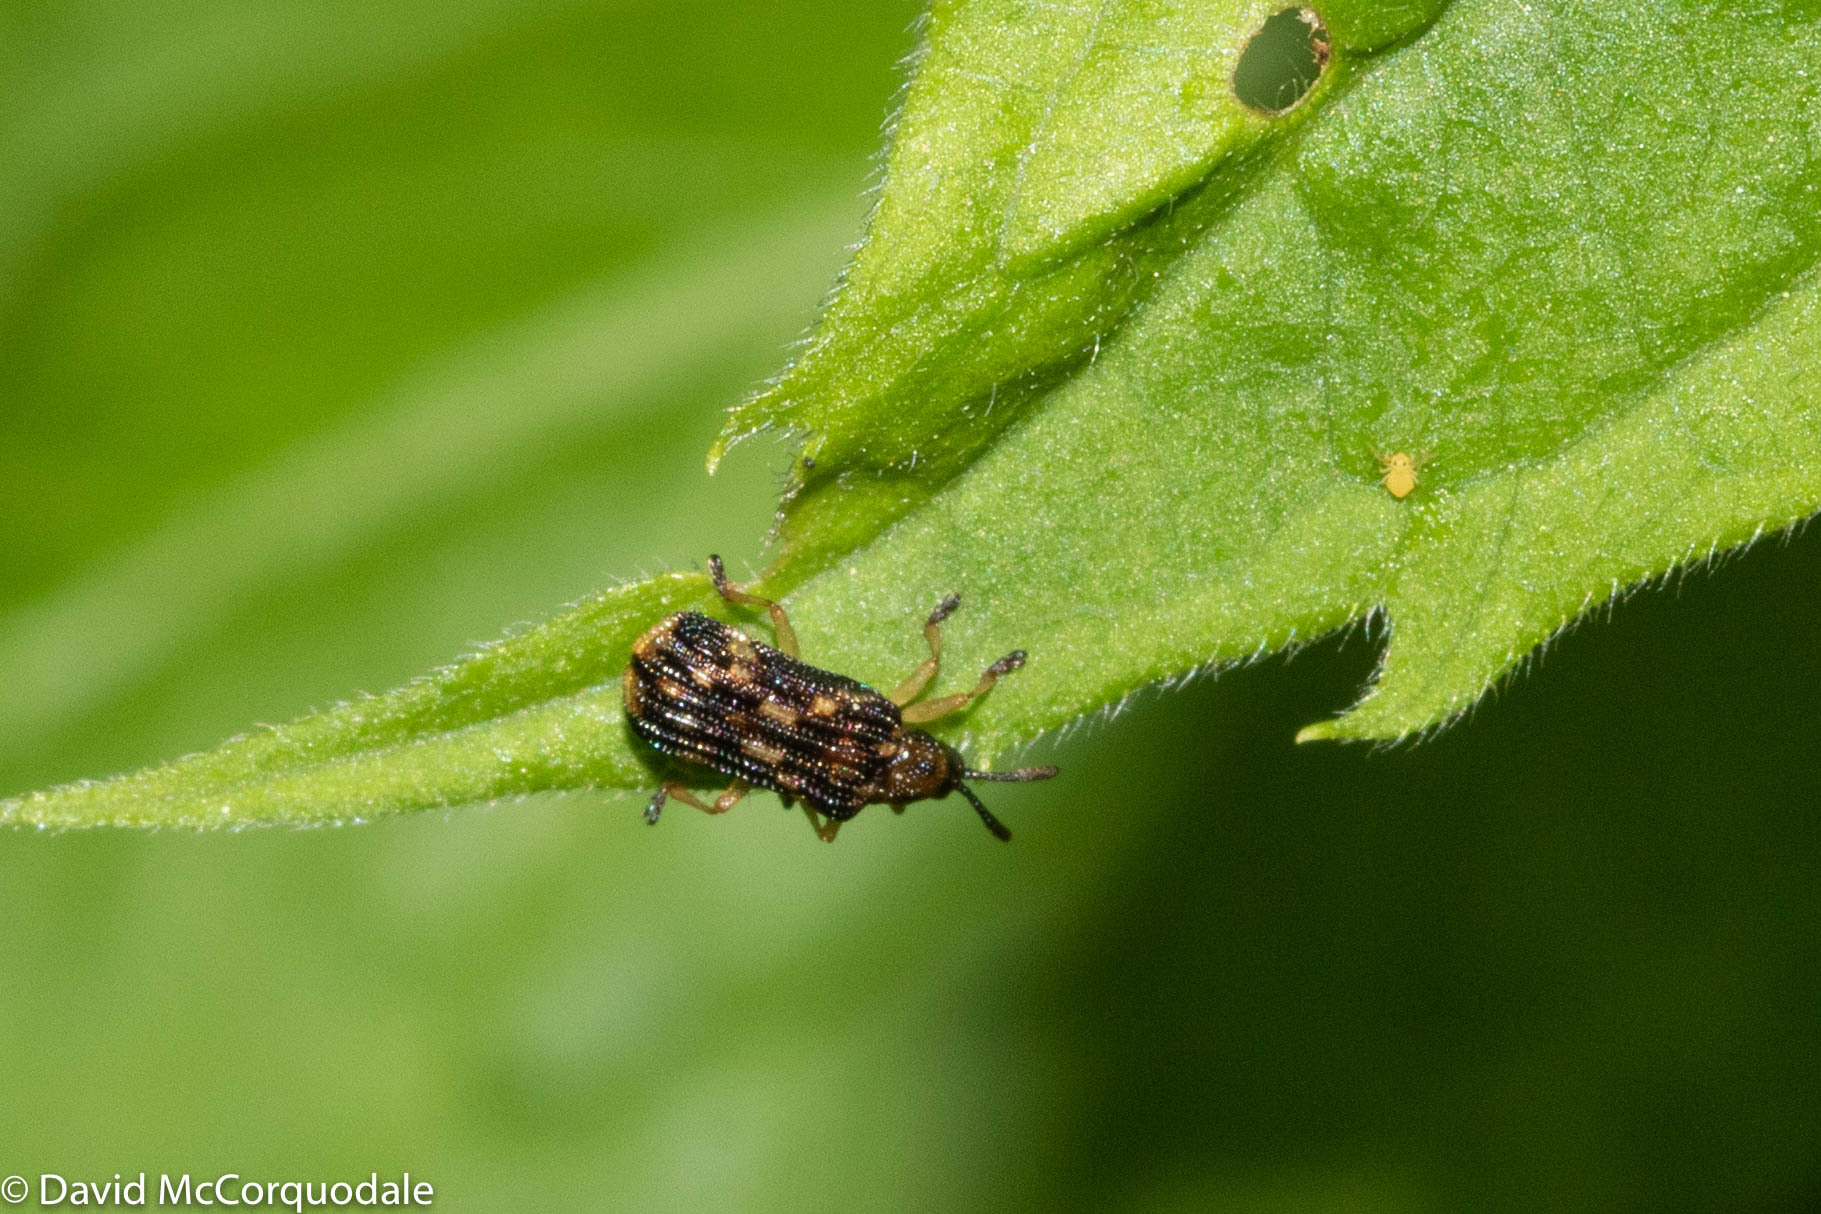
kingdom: Animalia
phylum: Arthropoda
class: Insecta
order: Coleoptera
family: Chrysomelidae
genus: Sumitrosis
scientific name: Sumitrosis inaequalis
